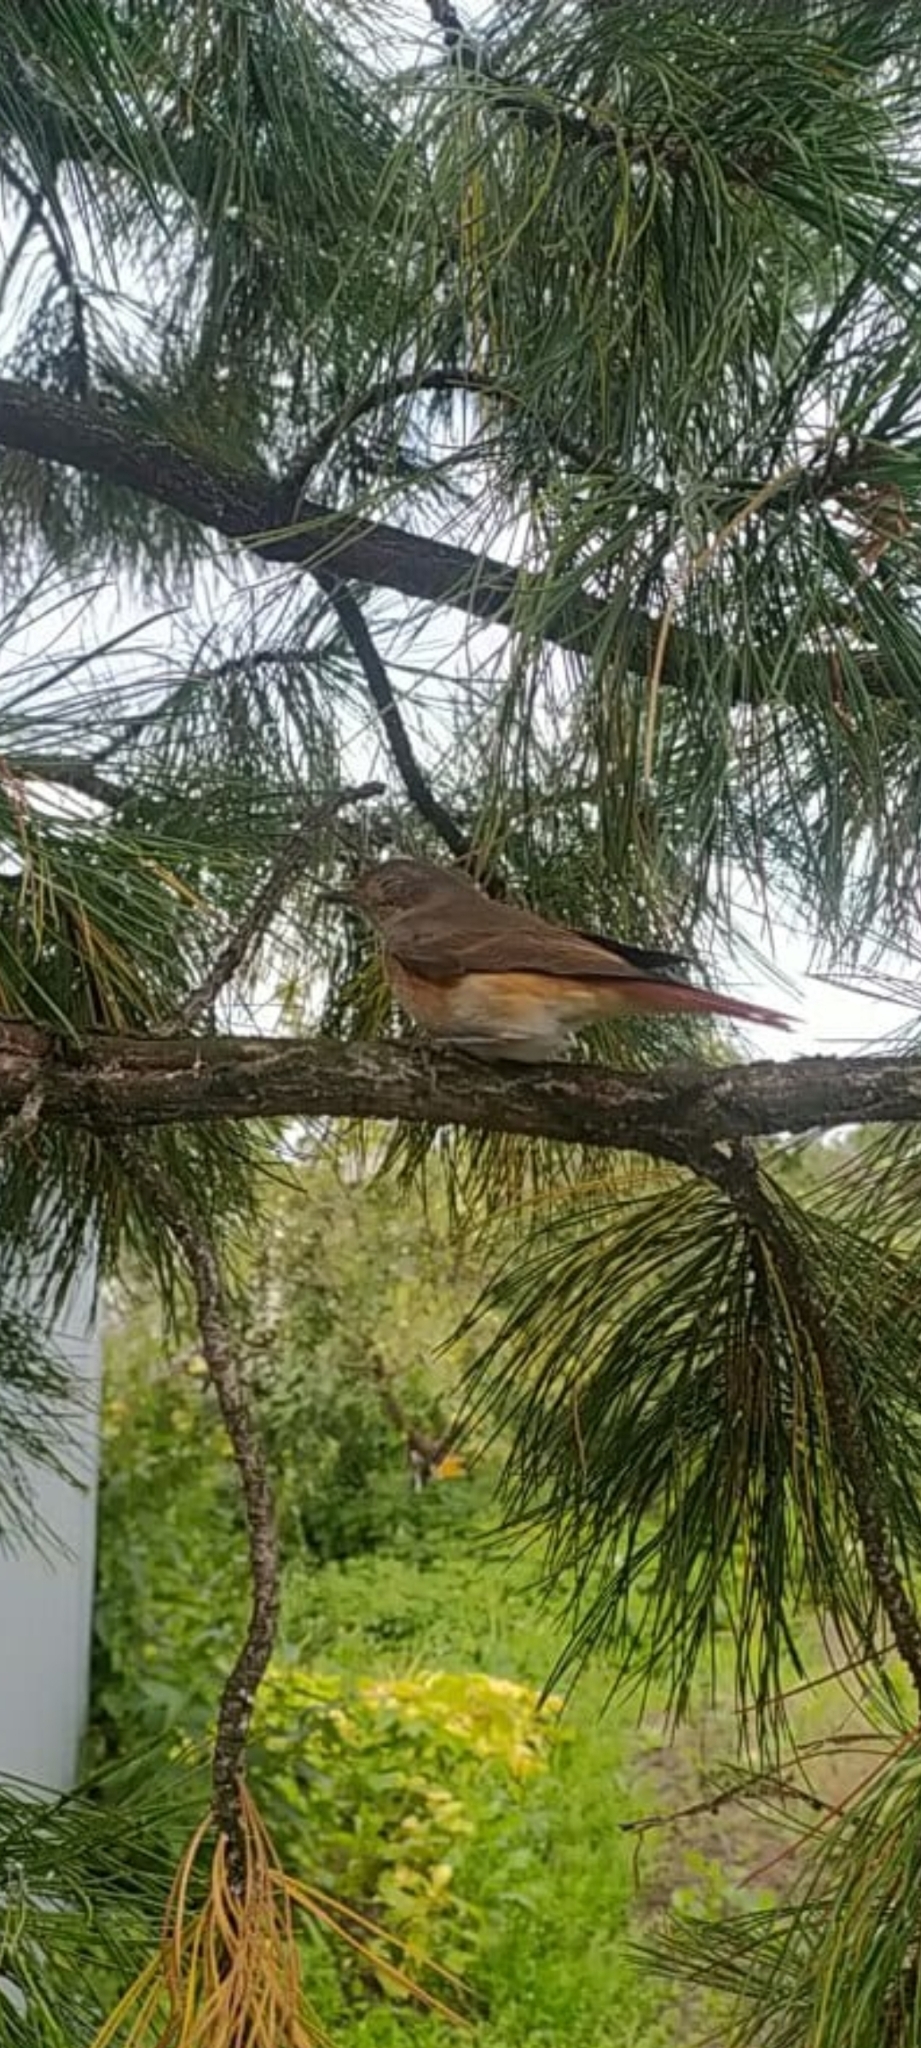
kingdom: Animalia
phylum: Chordata
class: Aves
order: Passeriformes
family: Muscicapidae
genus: Phoenicurus
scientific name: Phoenicurus phoenicurus
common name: Common redstart
